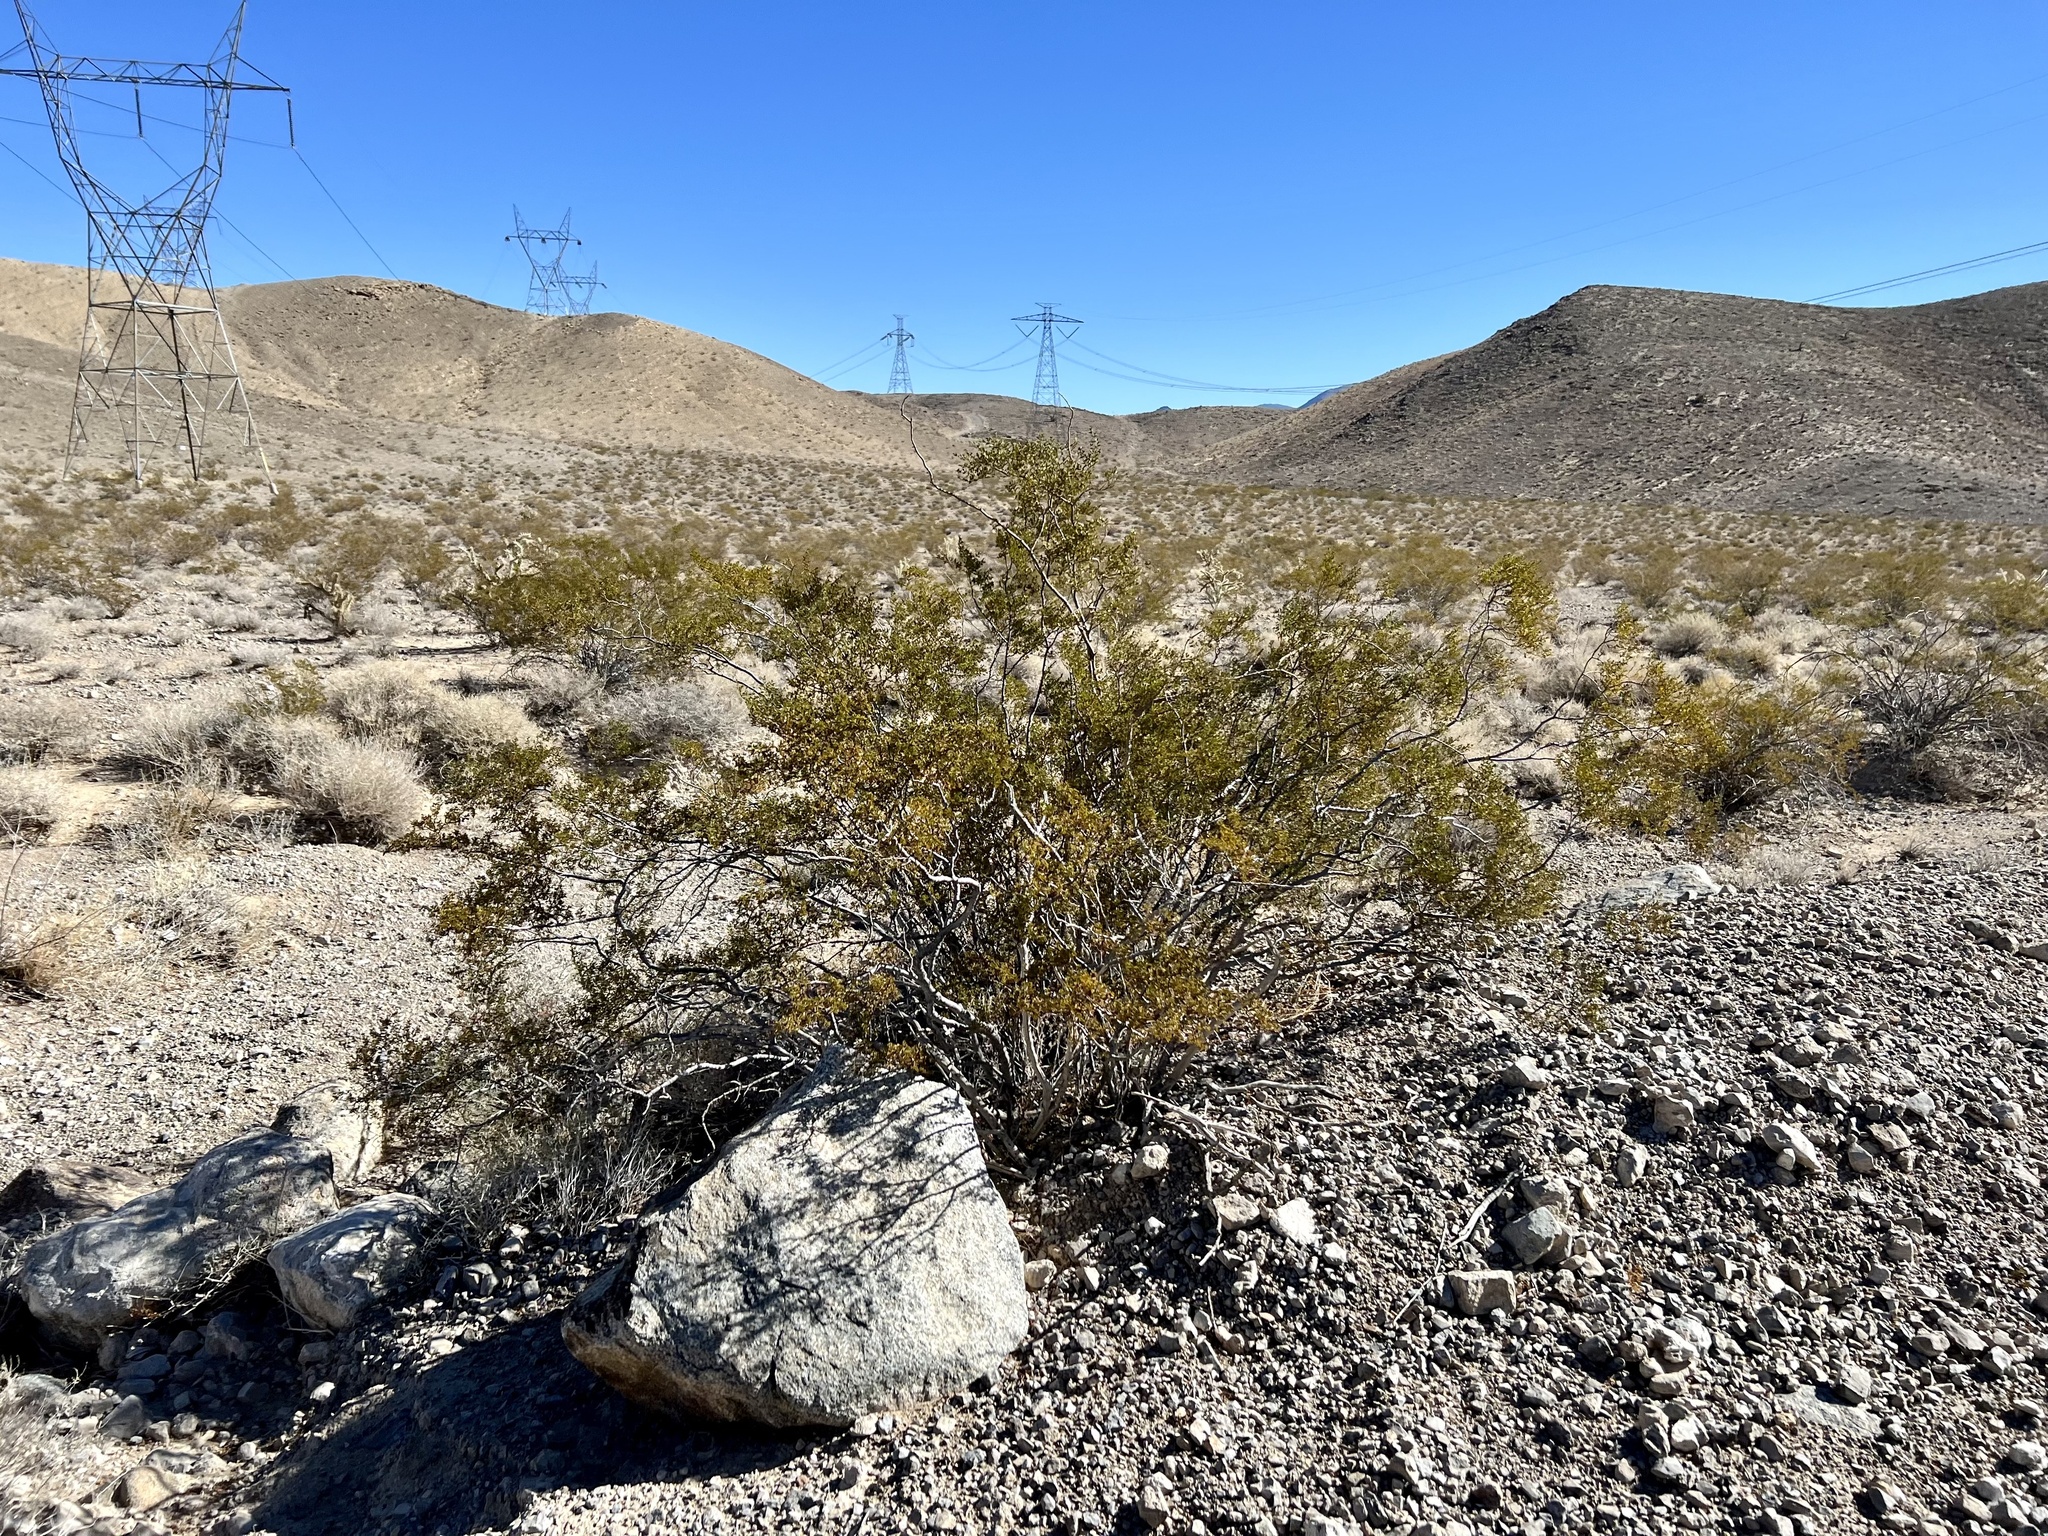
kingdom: Plantae
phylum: Tracheophyta
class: Magnoliopsida
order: Zygophyllales
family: Zygophyllaceae
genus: Larrea
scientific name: Larrea tridentata
